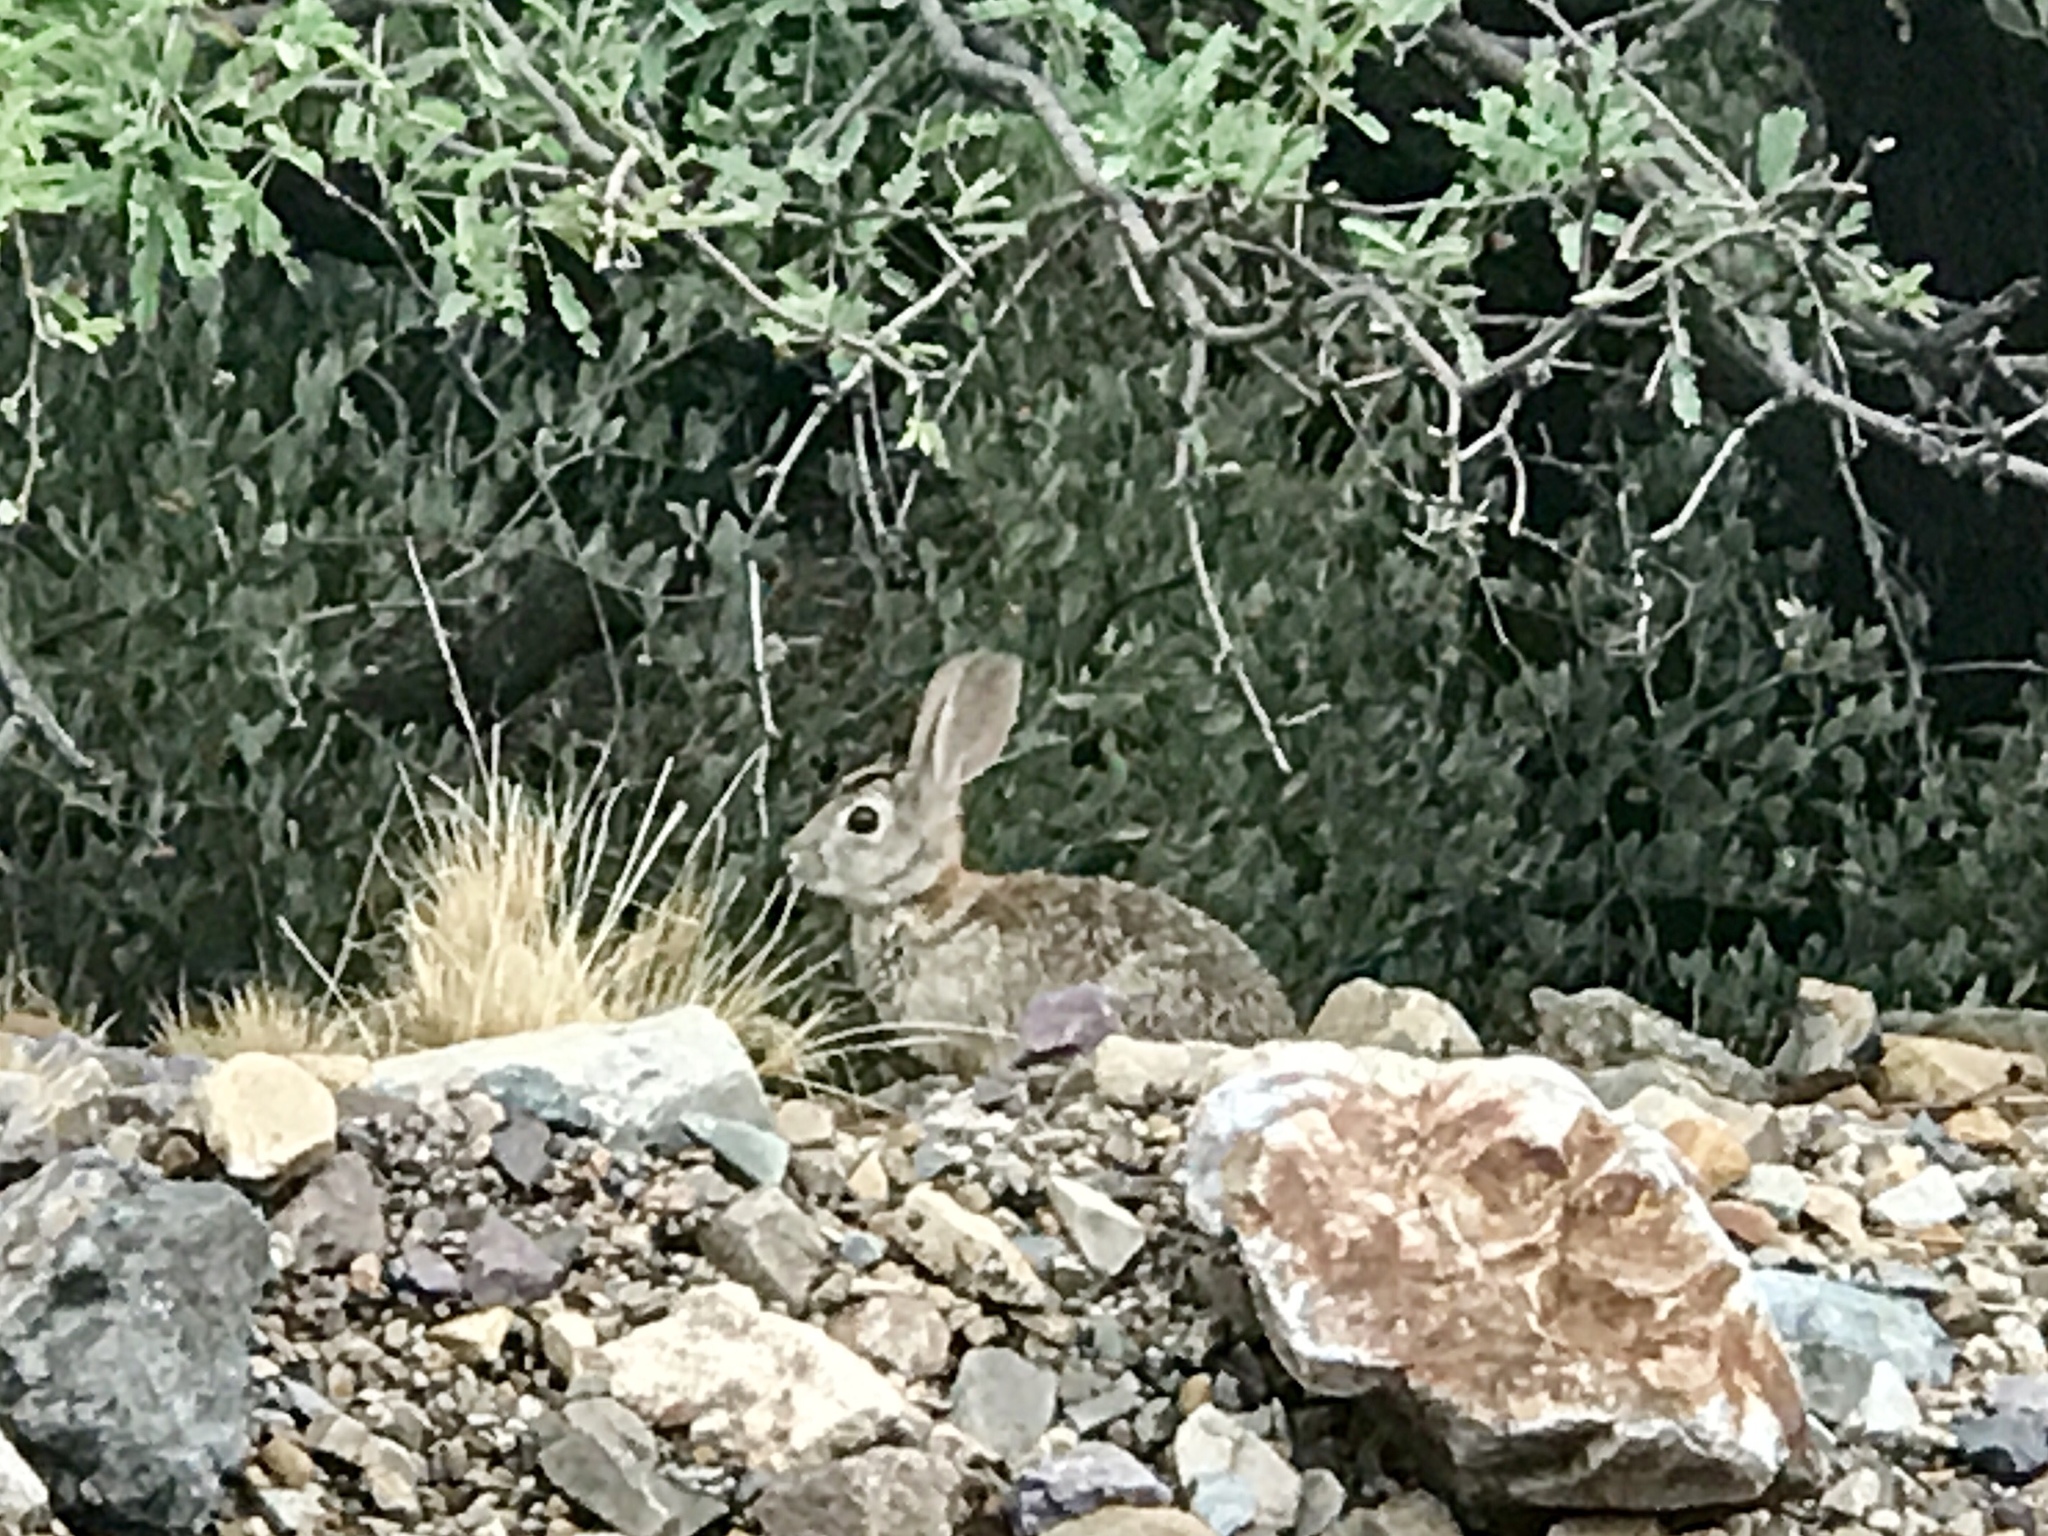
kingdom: Animalia
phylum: Chordata
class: Mammalia
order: Lagomorpha
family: Leporidae
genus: Sylvilagus
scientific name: Sylvilagus audubonii
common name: Desert cottontail
